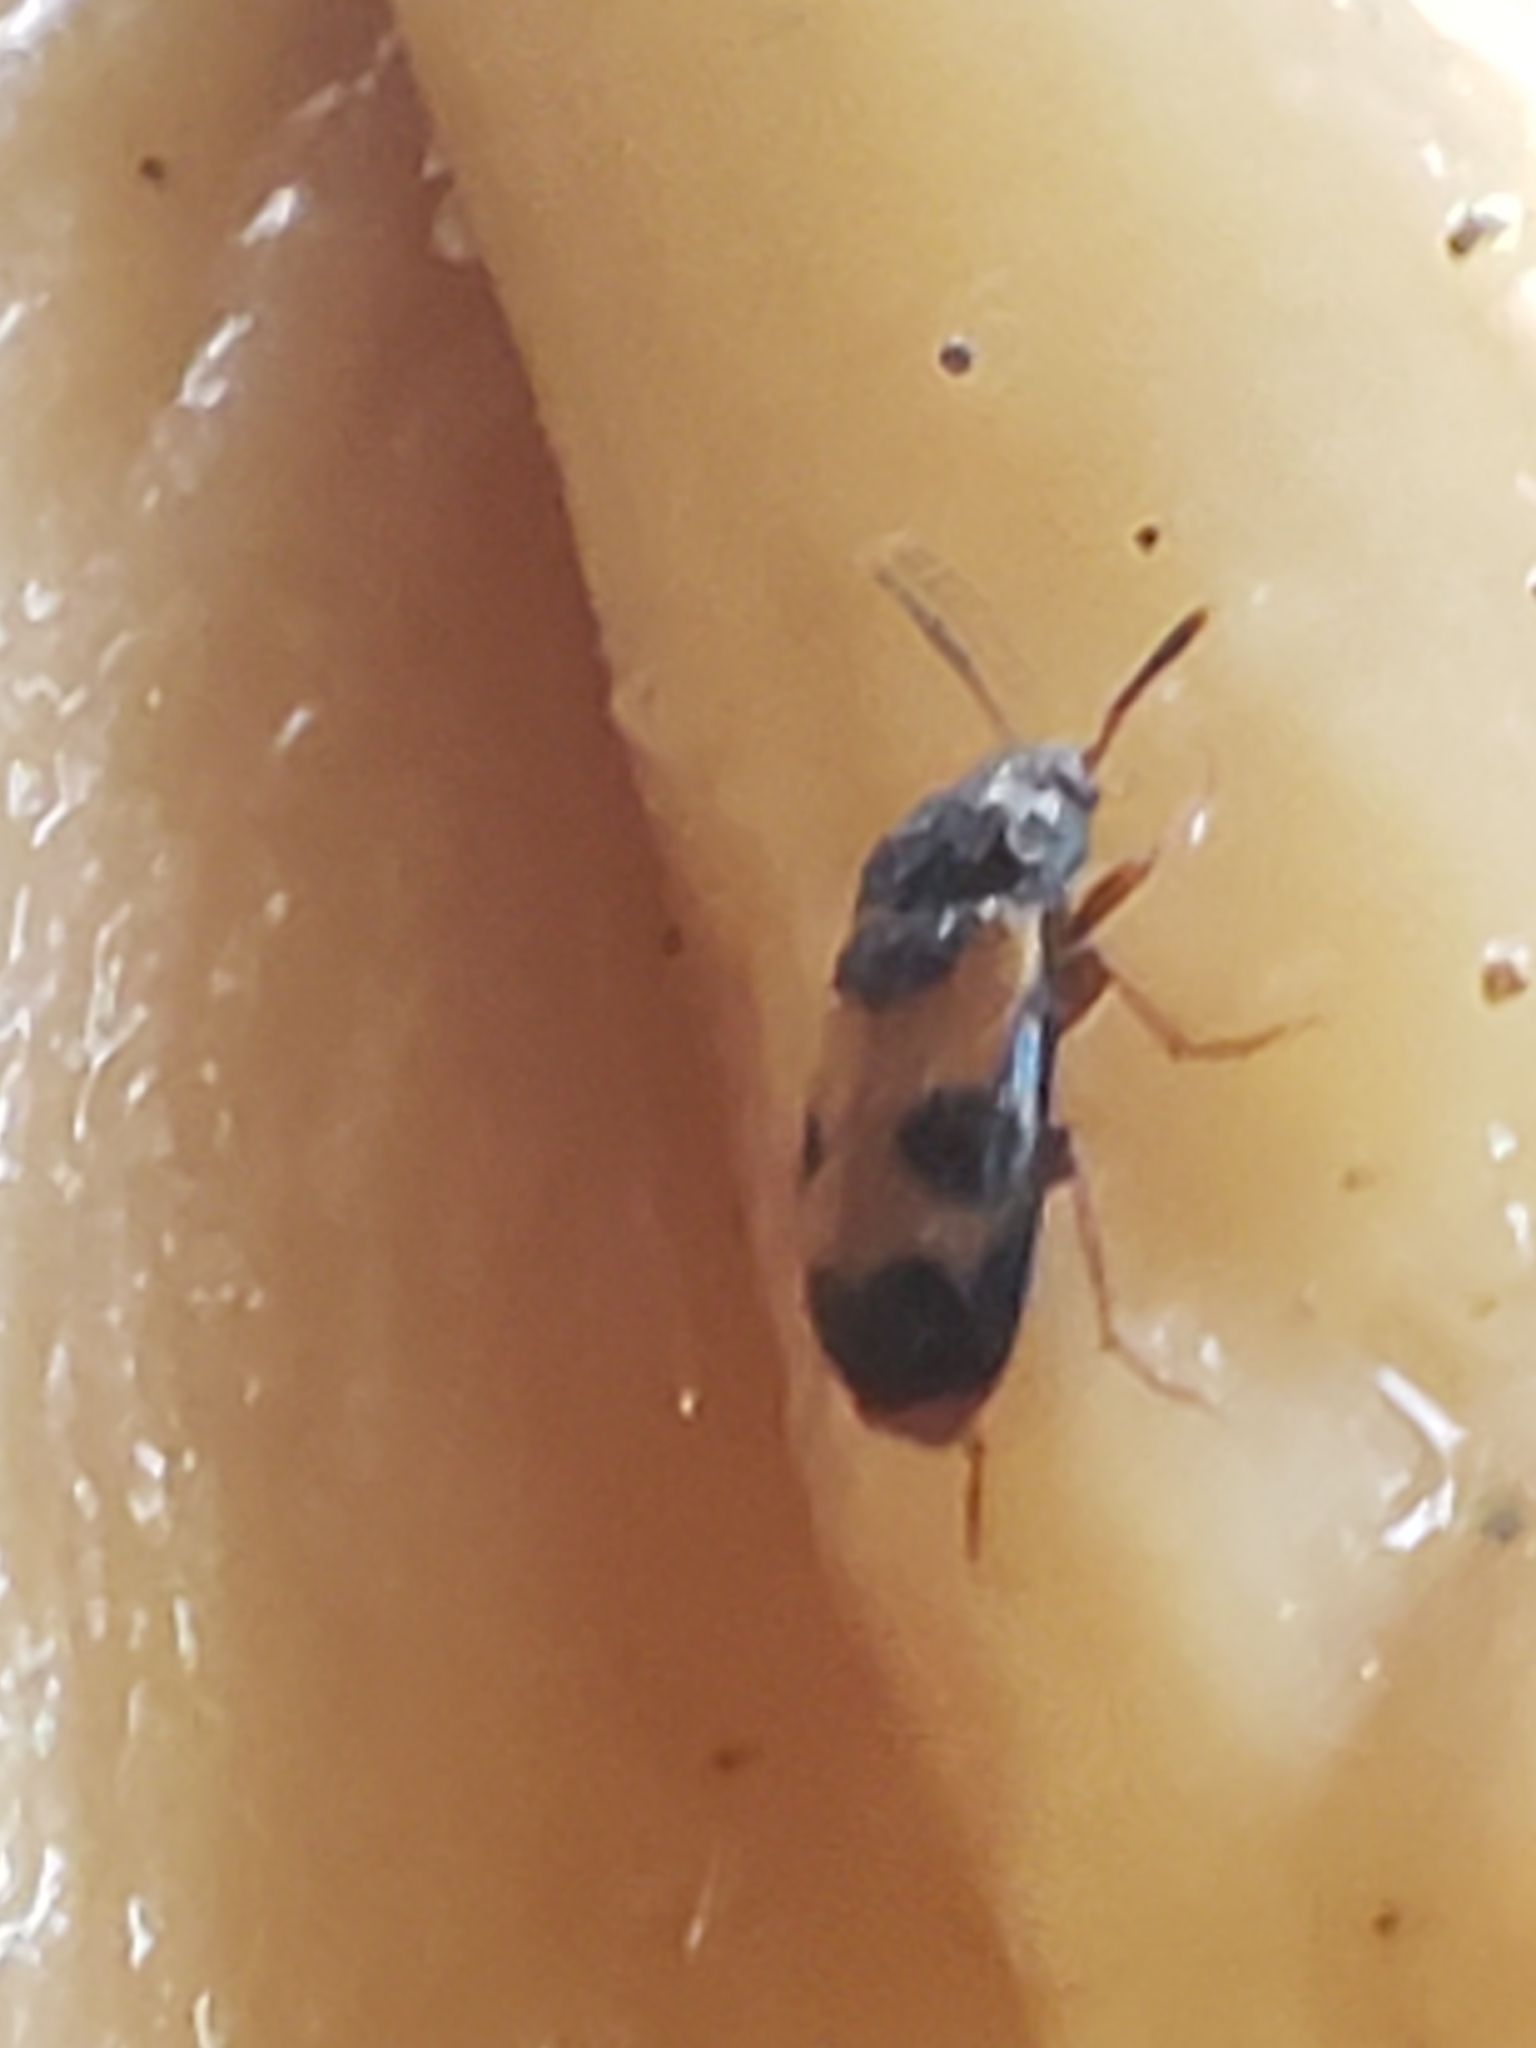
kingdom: Animalia
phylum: Arthropoda
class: Insecta
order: Coleoptera
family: Mycetophagidae
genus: Mycetophagus
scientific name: Mycetophagus punctatus
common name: Hairy fungus beetle
